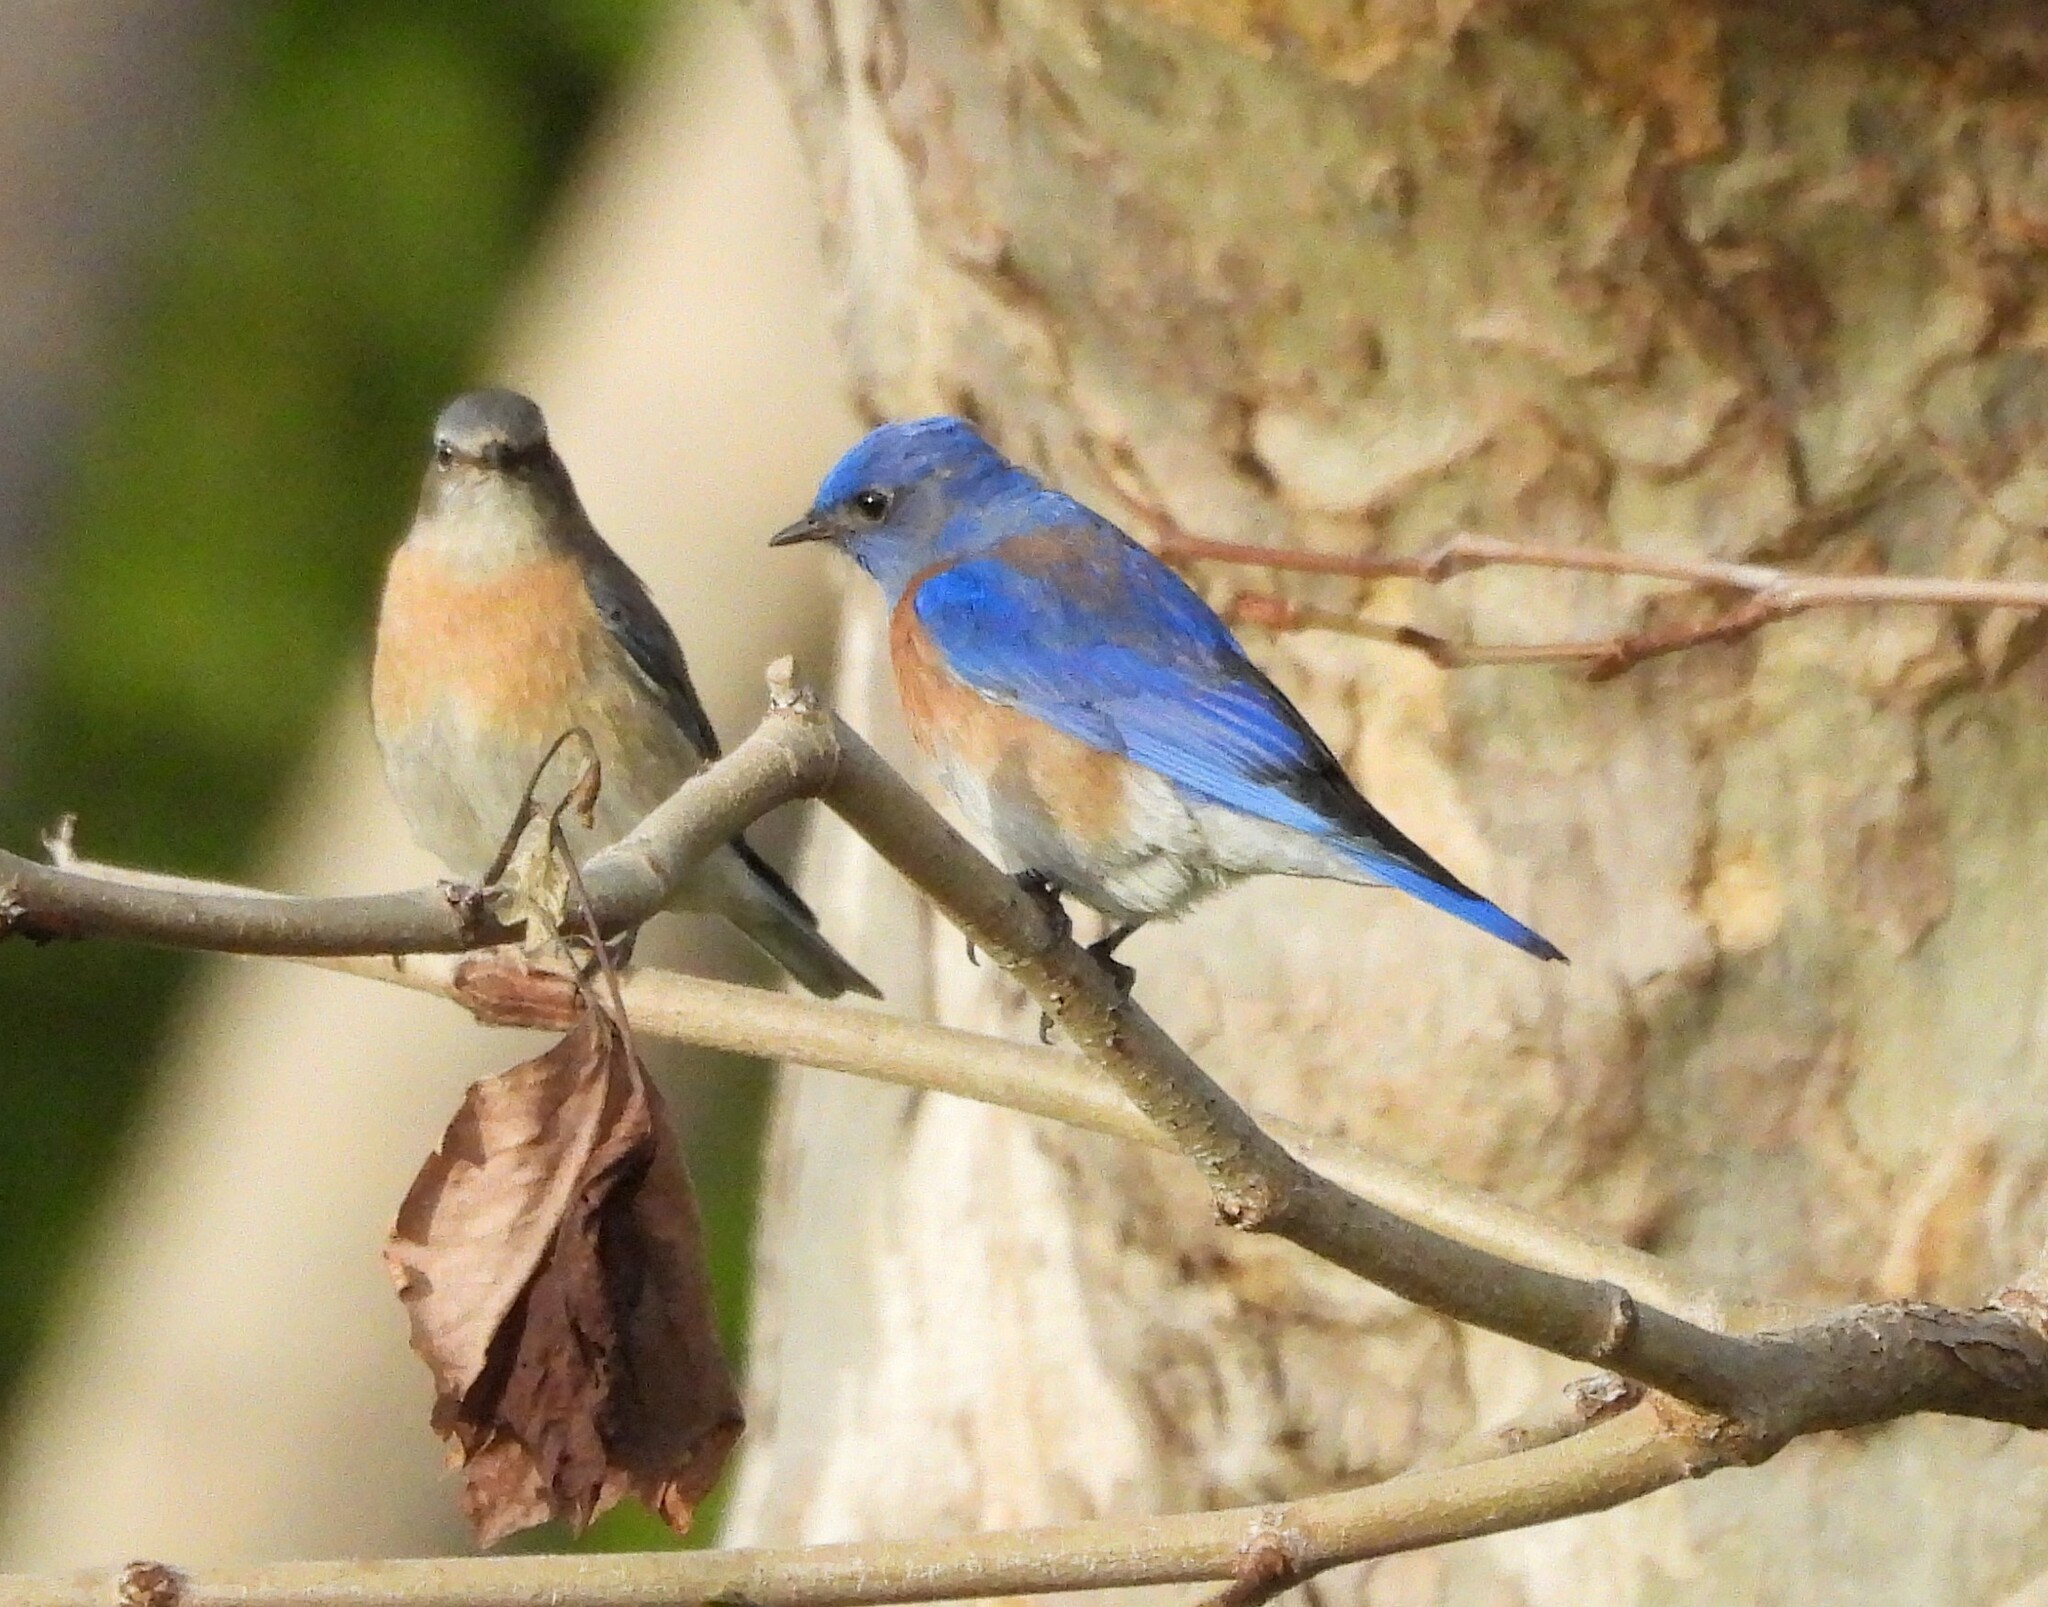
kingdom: Animalia
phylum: Chordata
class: Aves
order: Passeriformes
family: Turdidae
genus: Sialia
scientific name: Sialia mexicana
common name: Western bluebird
